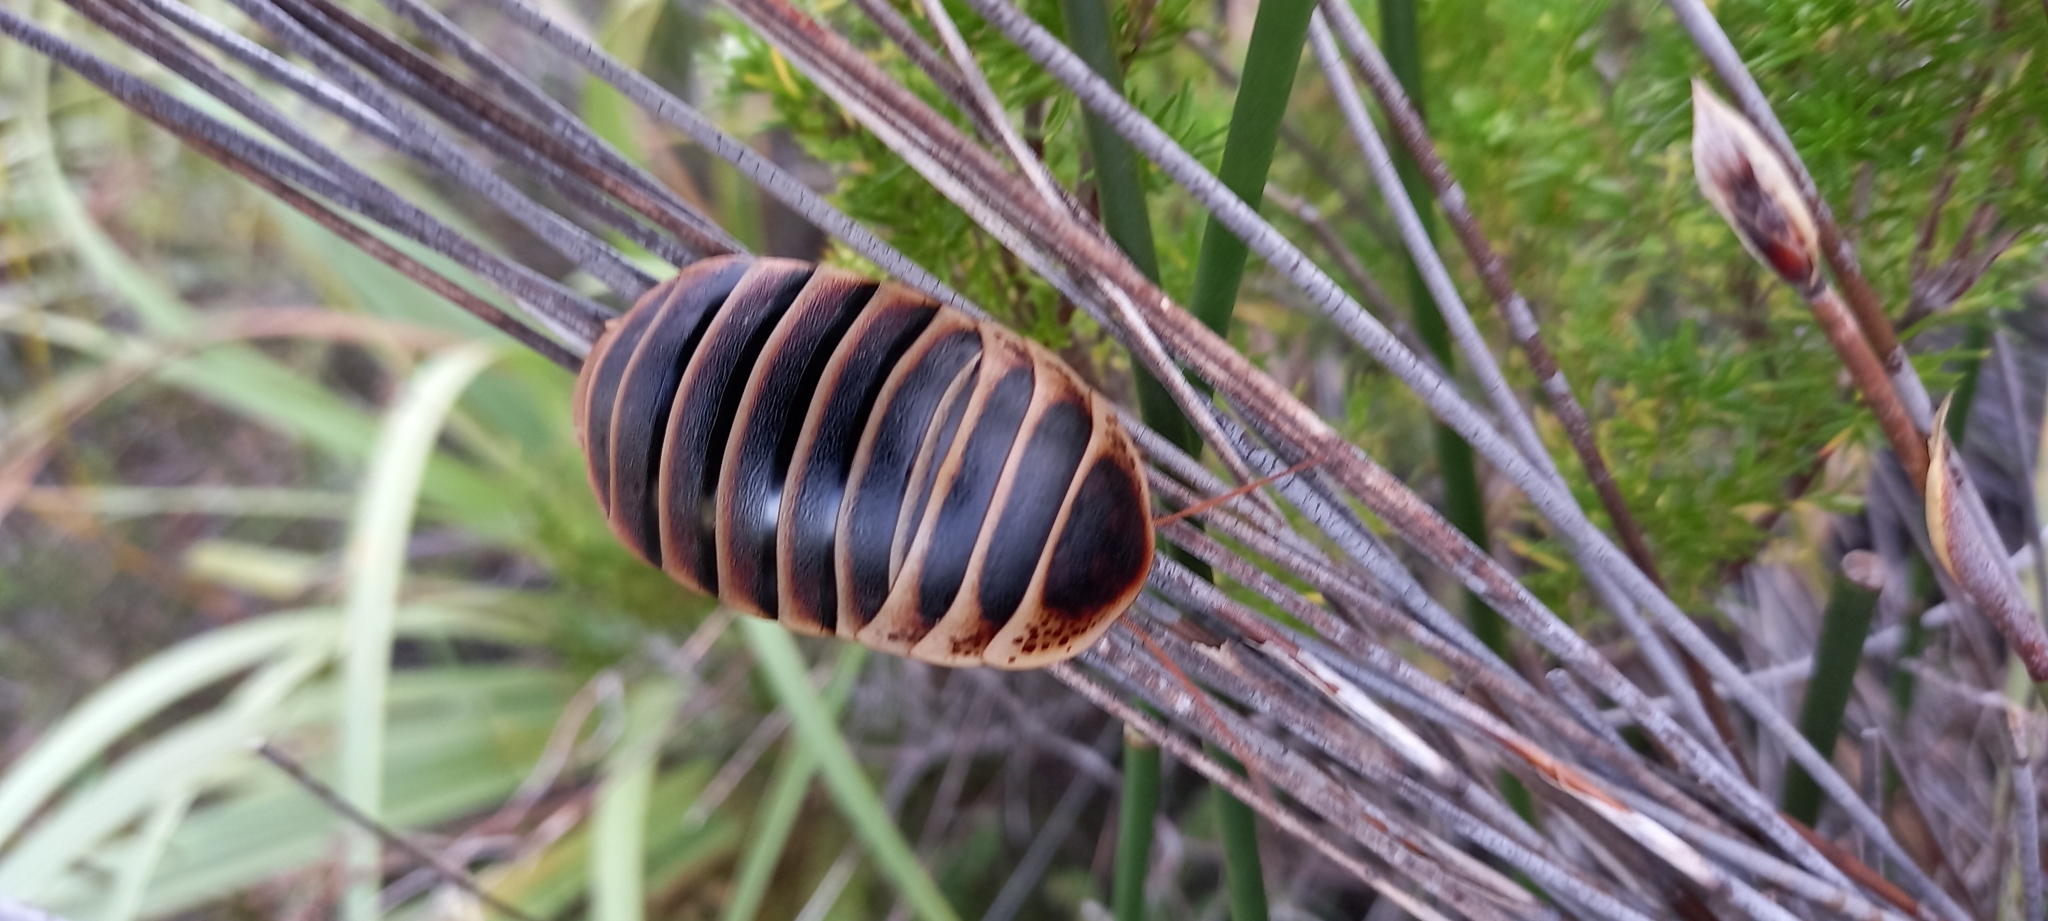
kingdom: Animalia
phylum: Arthropoda
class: Insecta
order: Blattodea
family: Blaberidae
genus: Aptera
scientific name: Aptera fusca
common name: Cape mountain cockroach
